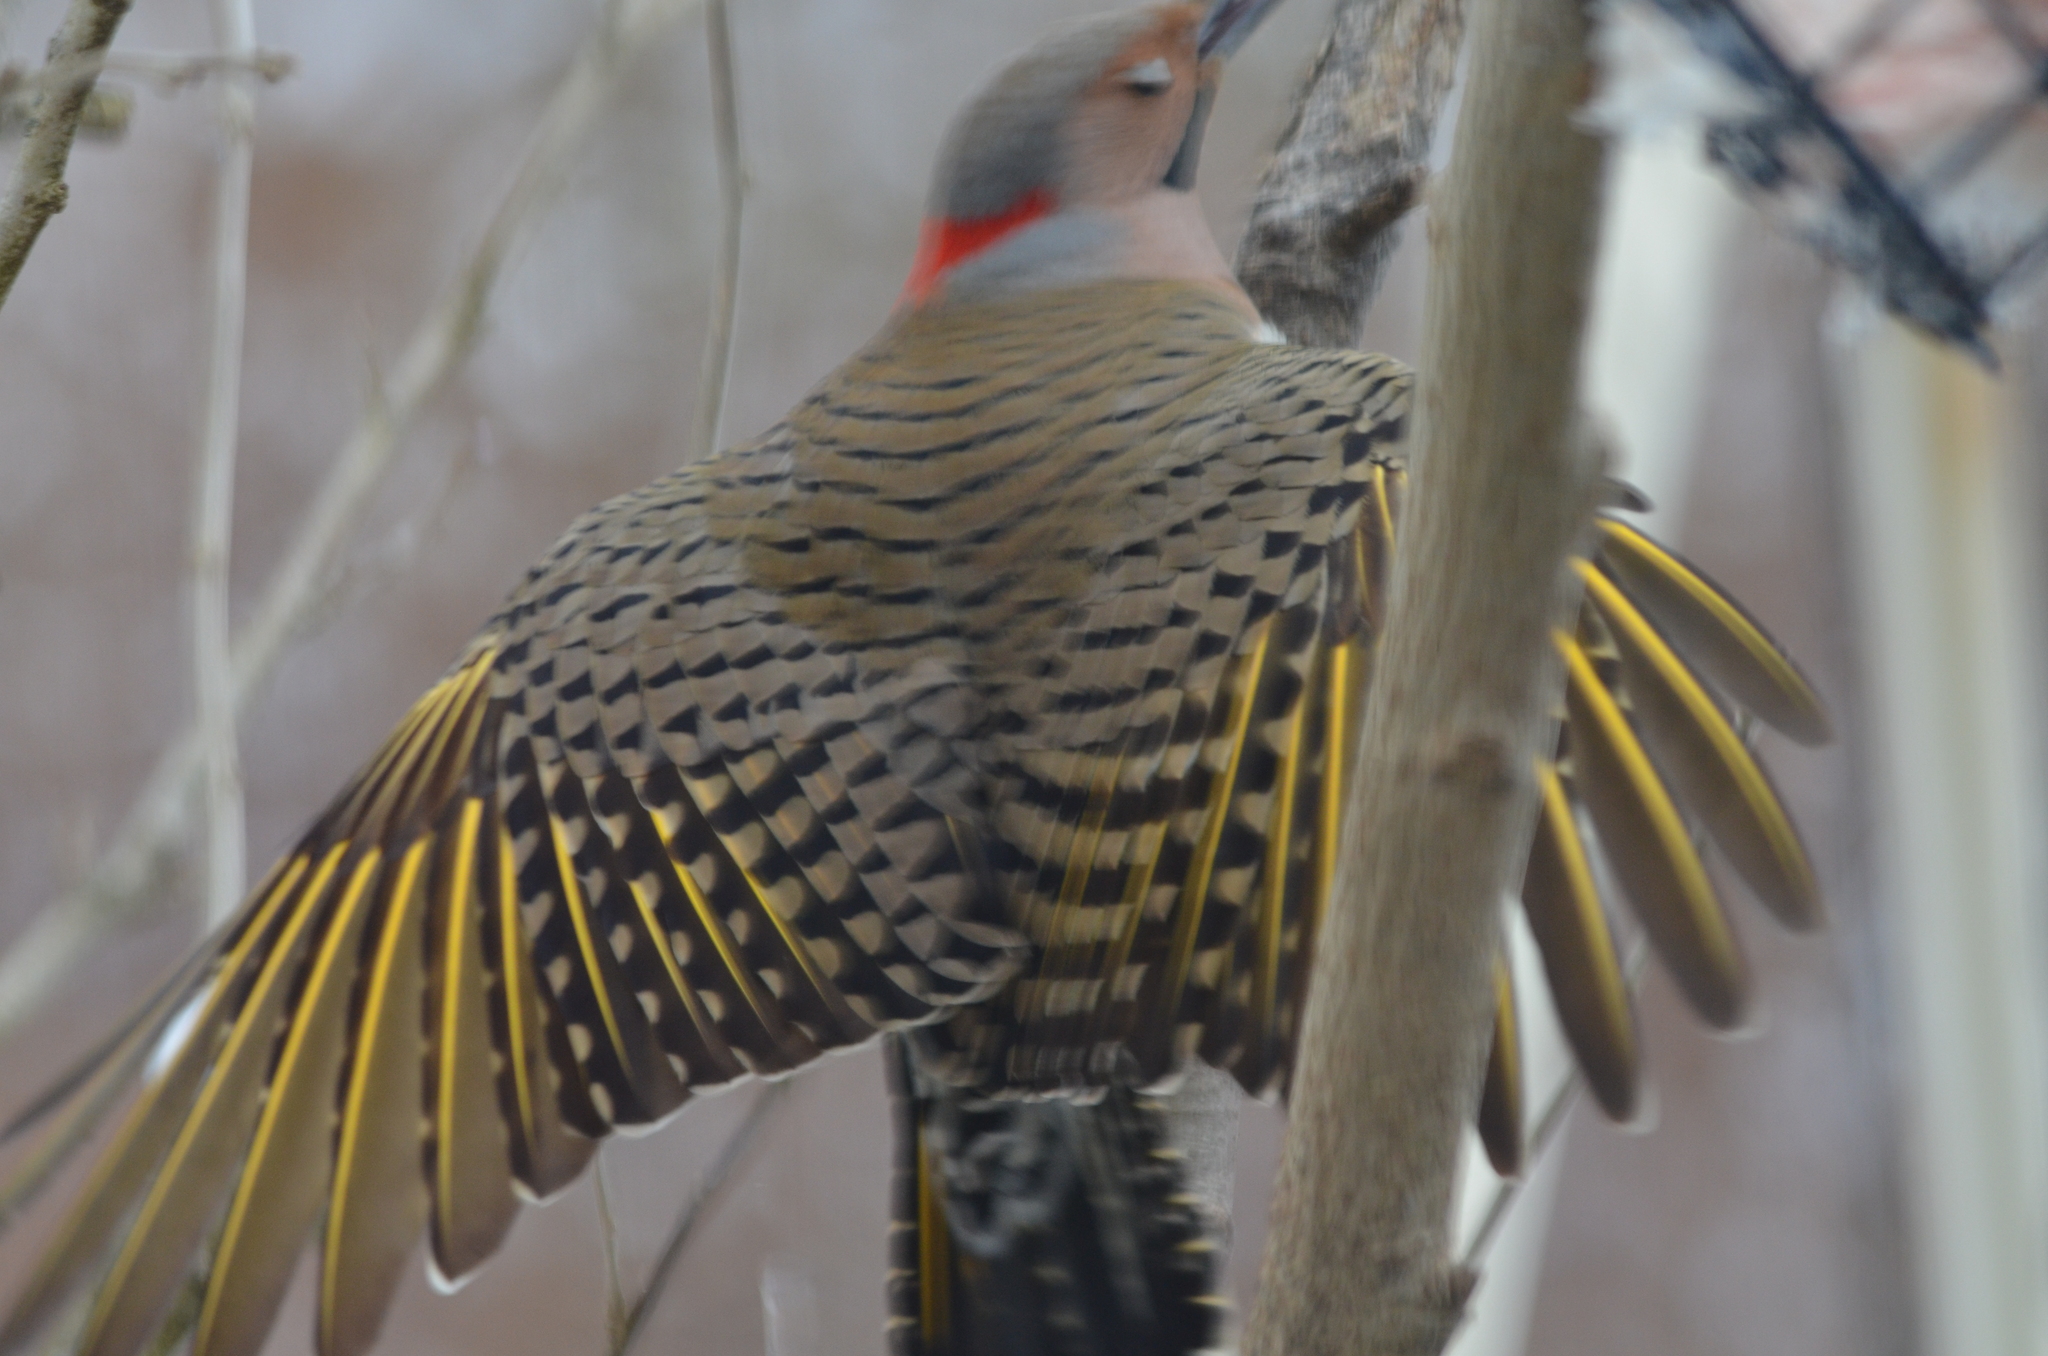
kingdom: Animalia
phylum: Chordata
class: Aves
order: Piciformes
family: Picidae
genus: Colaptes
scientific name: Colaptes auratus
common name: Northern flicker
